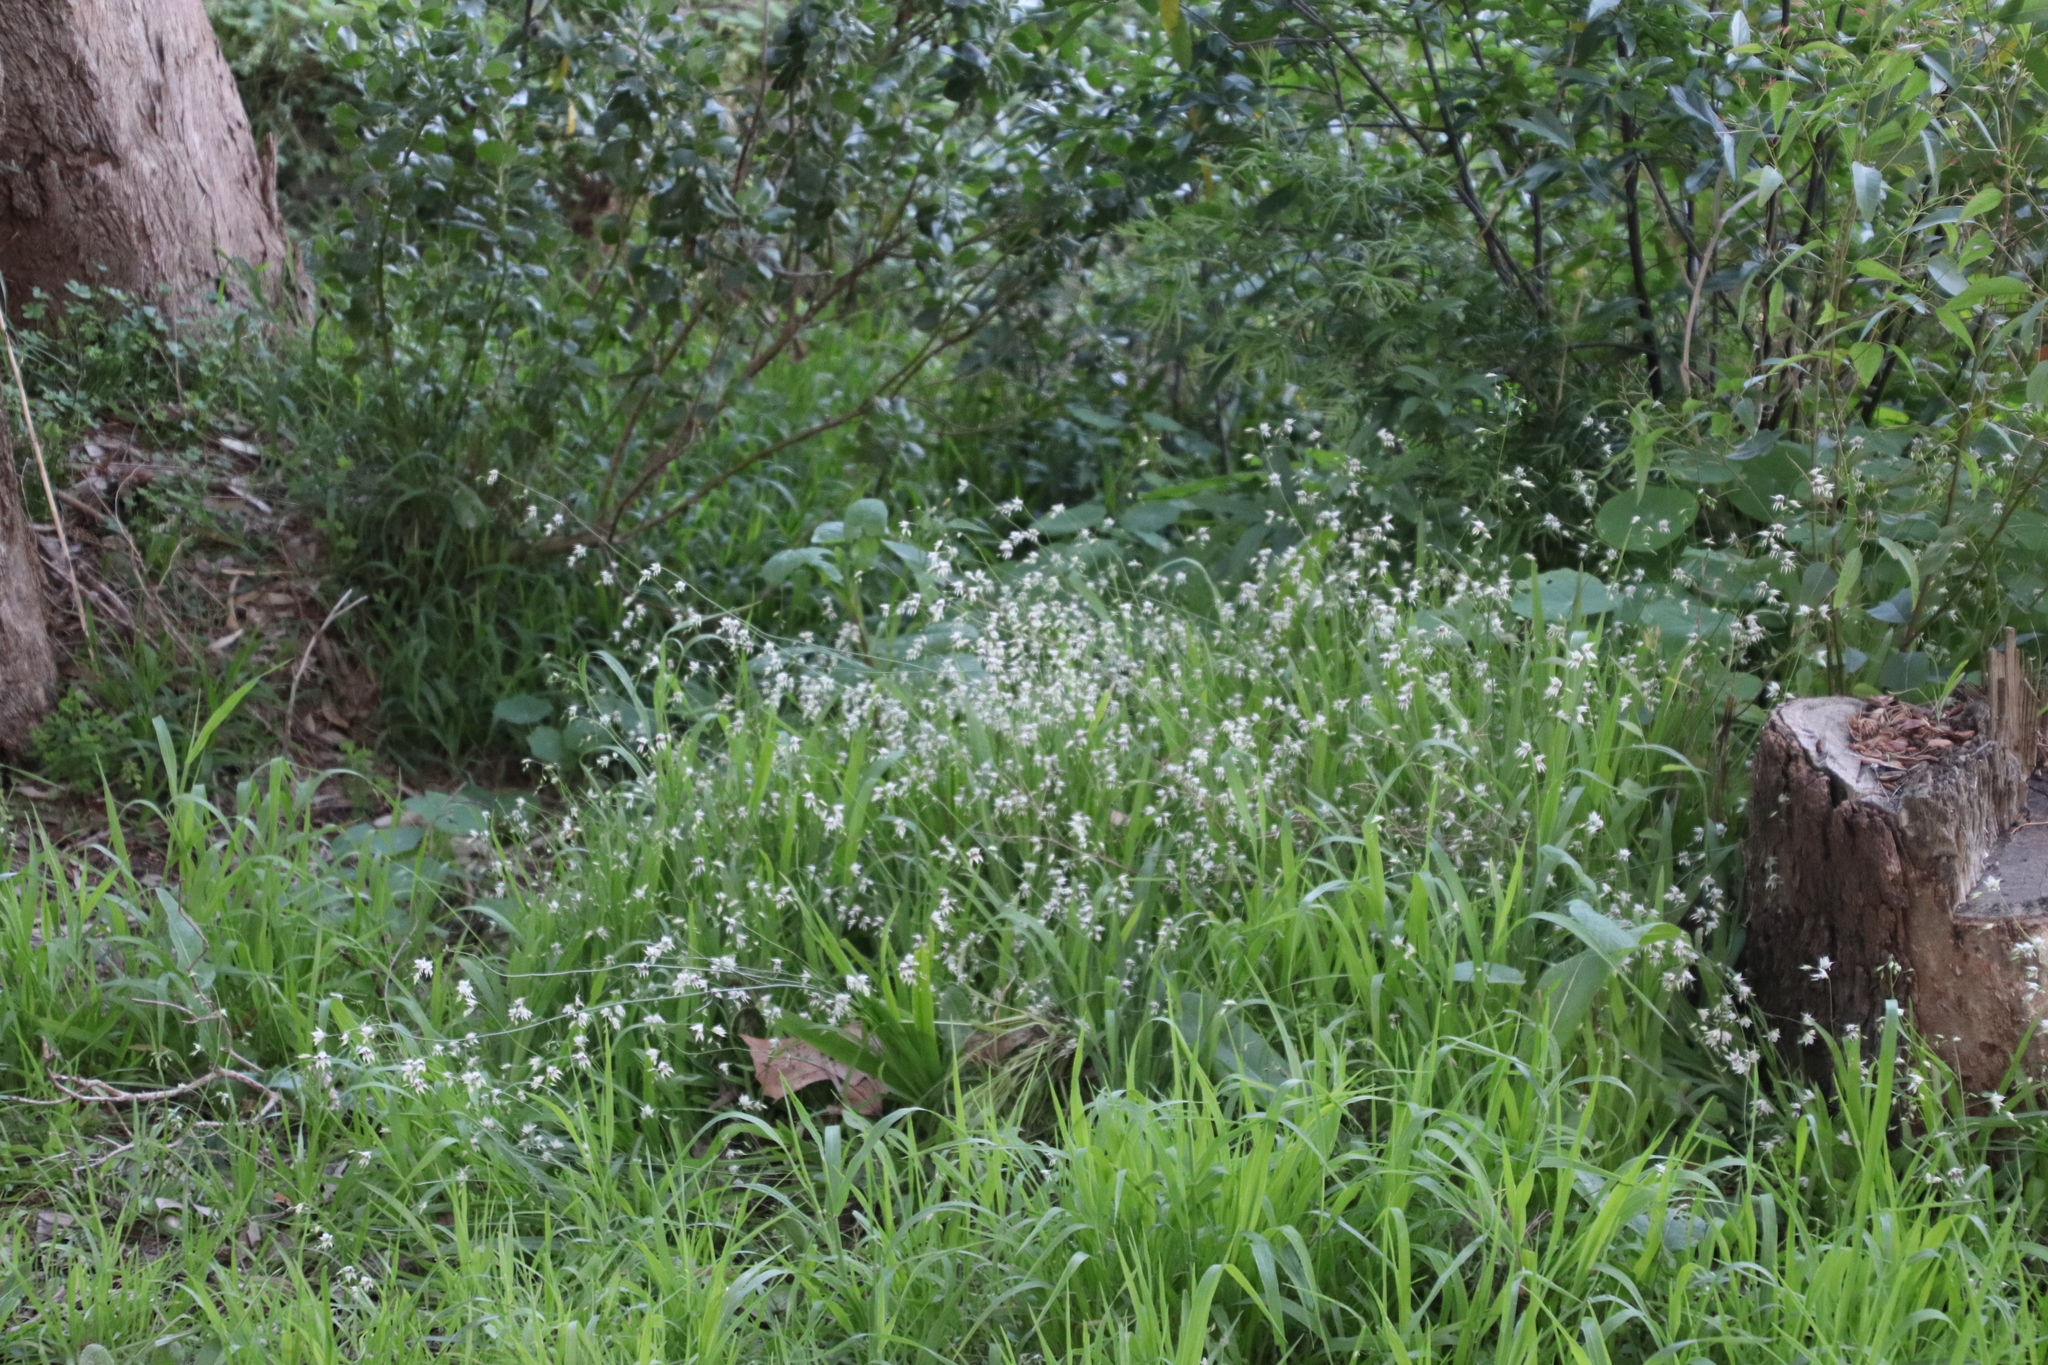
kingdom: Plantae
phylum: Tracheophyta
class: Liliopsida
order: Asparagales
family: Iridaceae
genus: Melasphaerula
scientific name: Melasphaerula graminea
